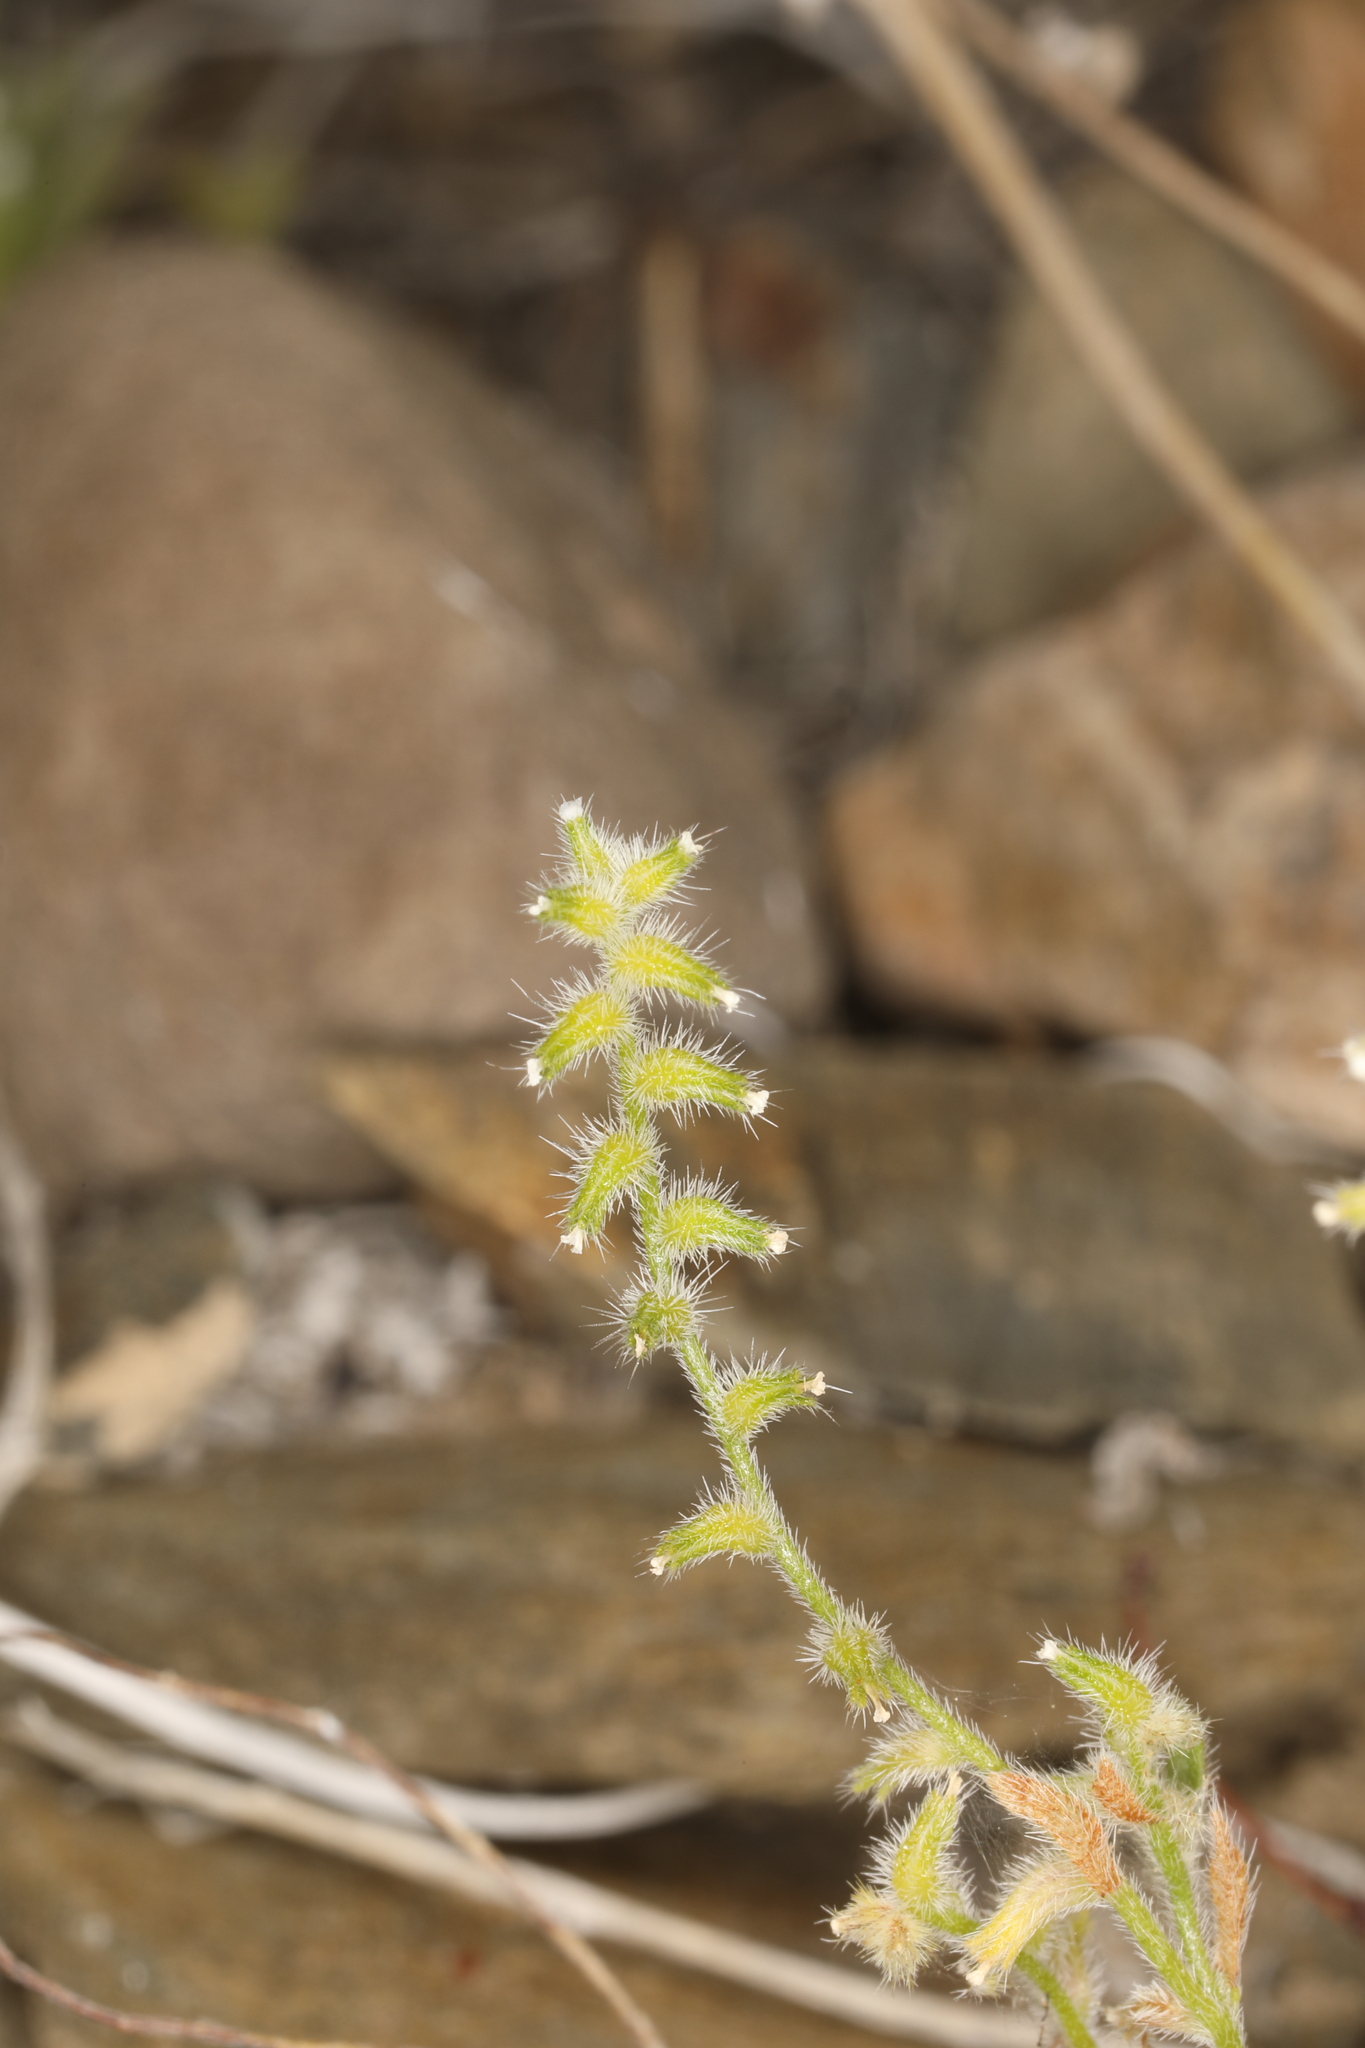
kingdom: Plantae
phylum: Tracheophyta
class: Magnoliopsida
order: Boraginales
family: Boraginaceae
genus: Cryptantha
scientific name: Cryptantha recurvata
